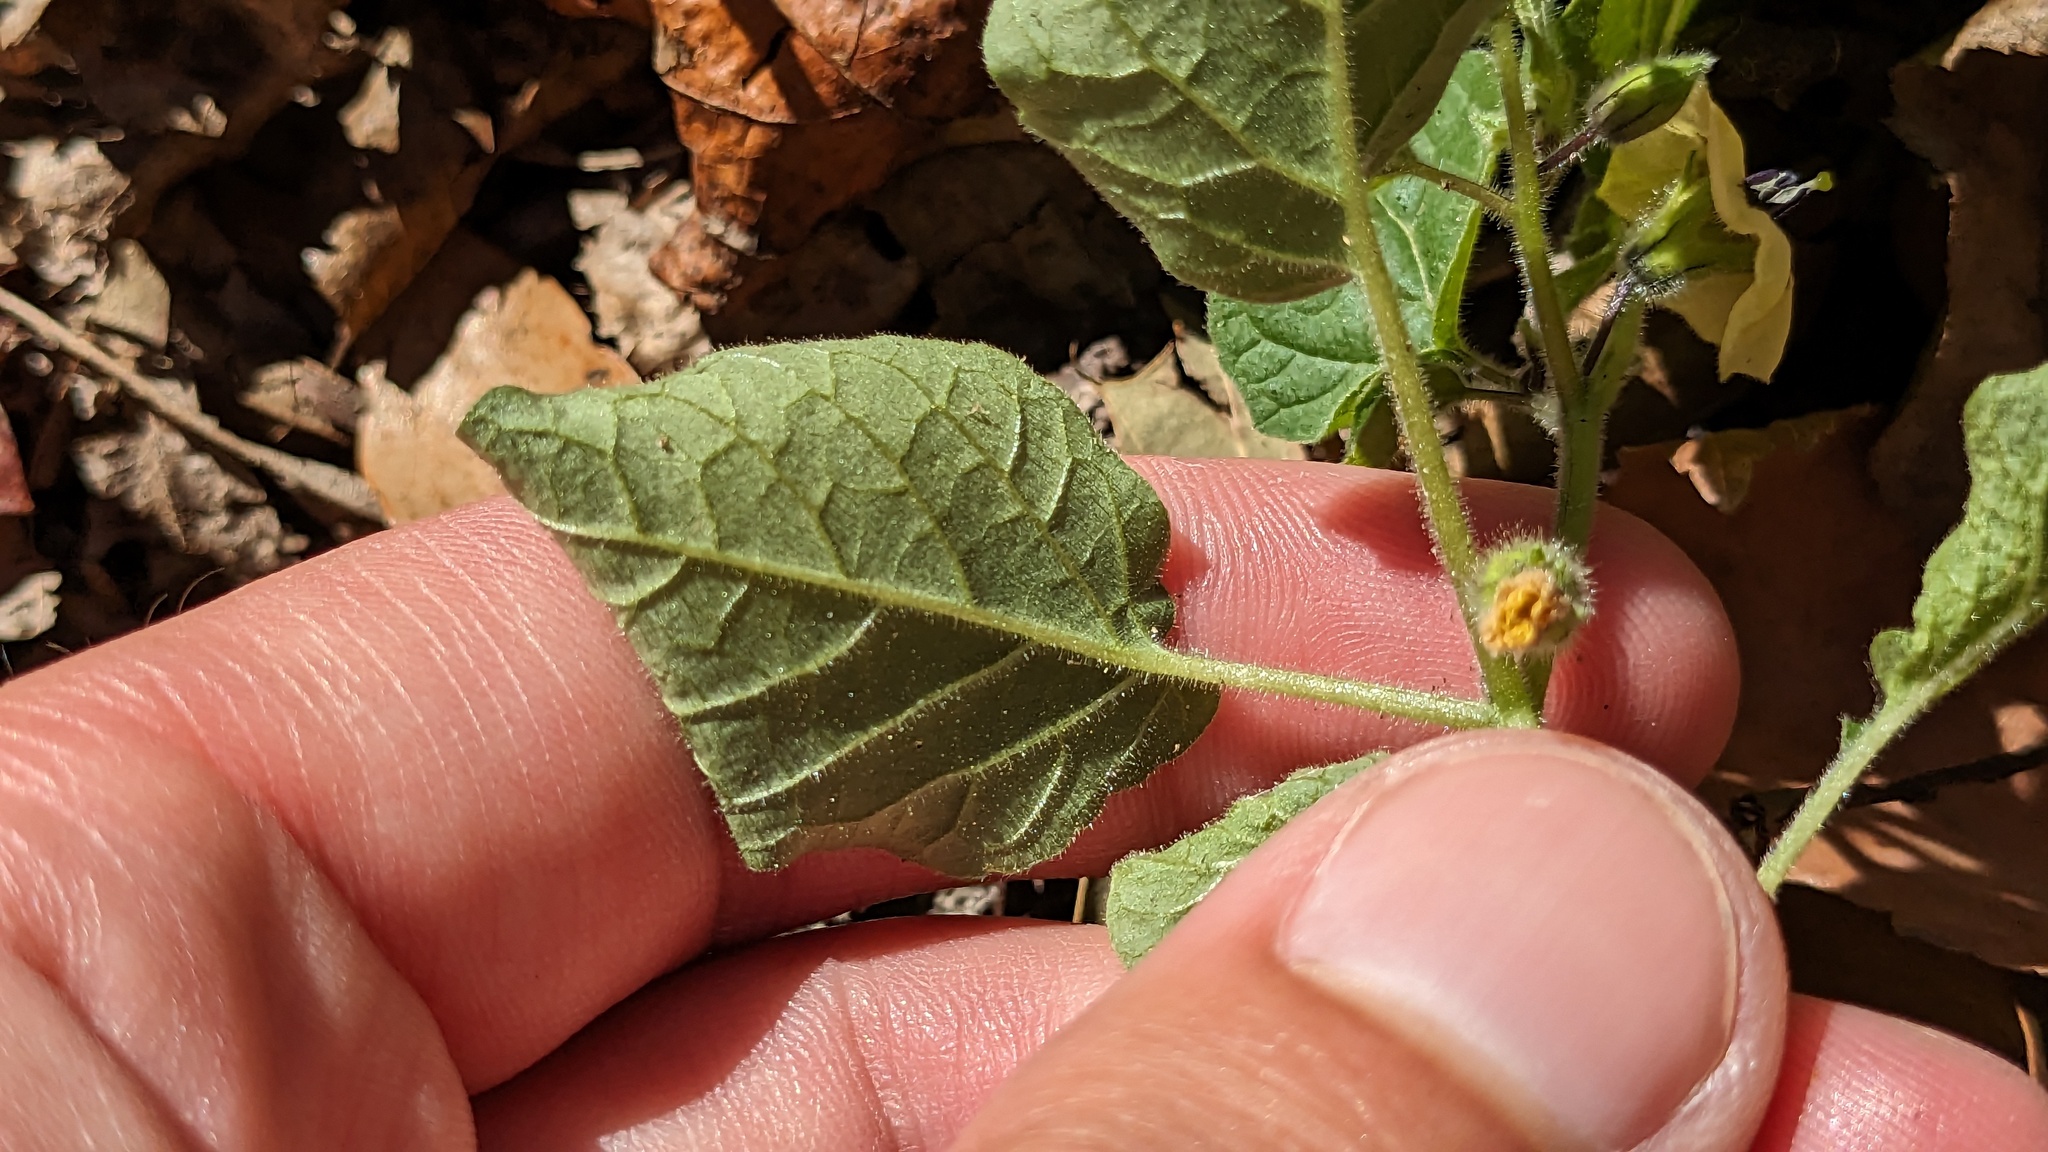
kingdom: Plantae
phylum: Tracheophyta
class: Magnoliopsida
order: Solanales
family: Solanaceae
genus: Physalis
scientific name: Physalis pubescens
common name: Downy ground-cherry
